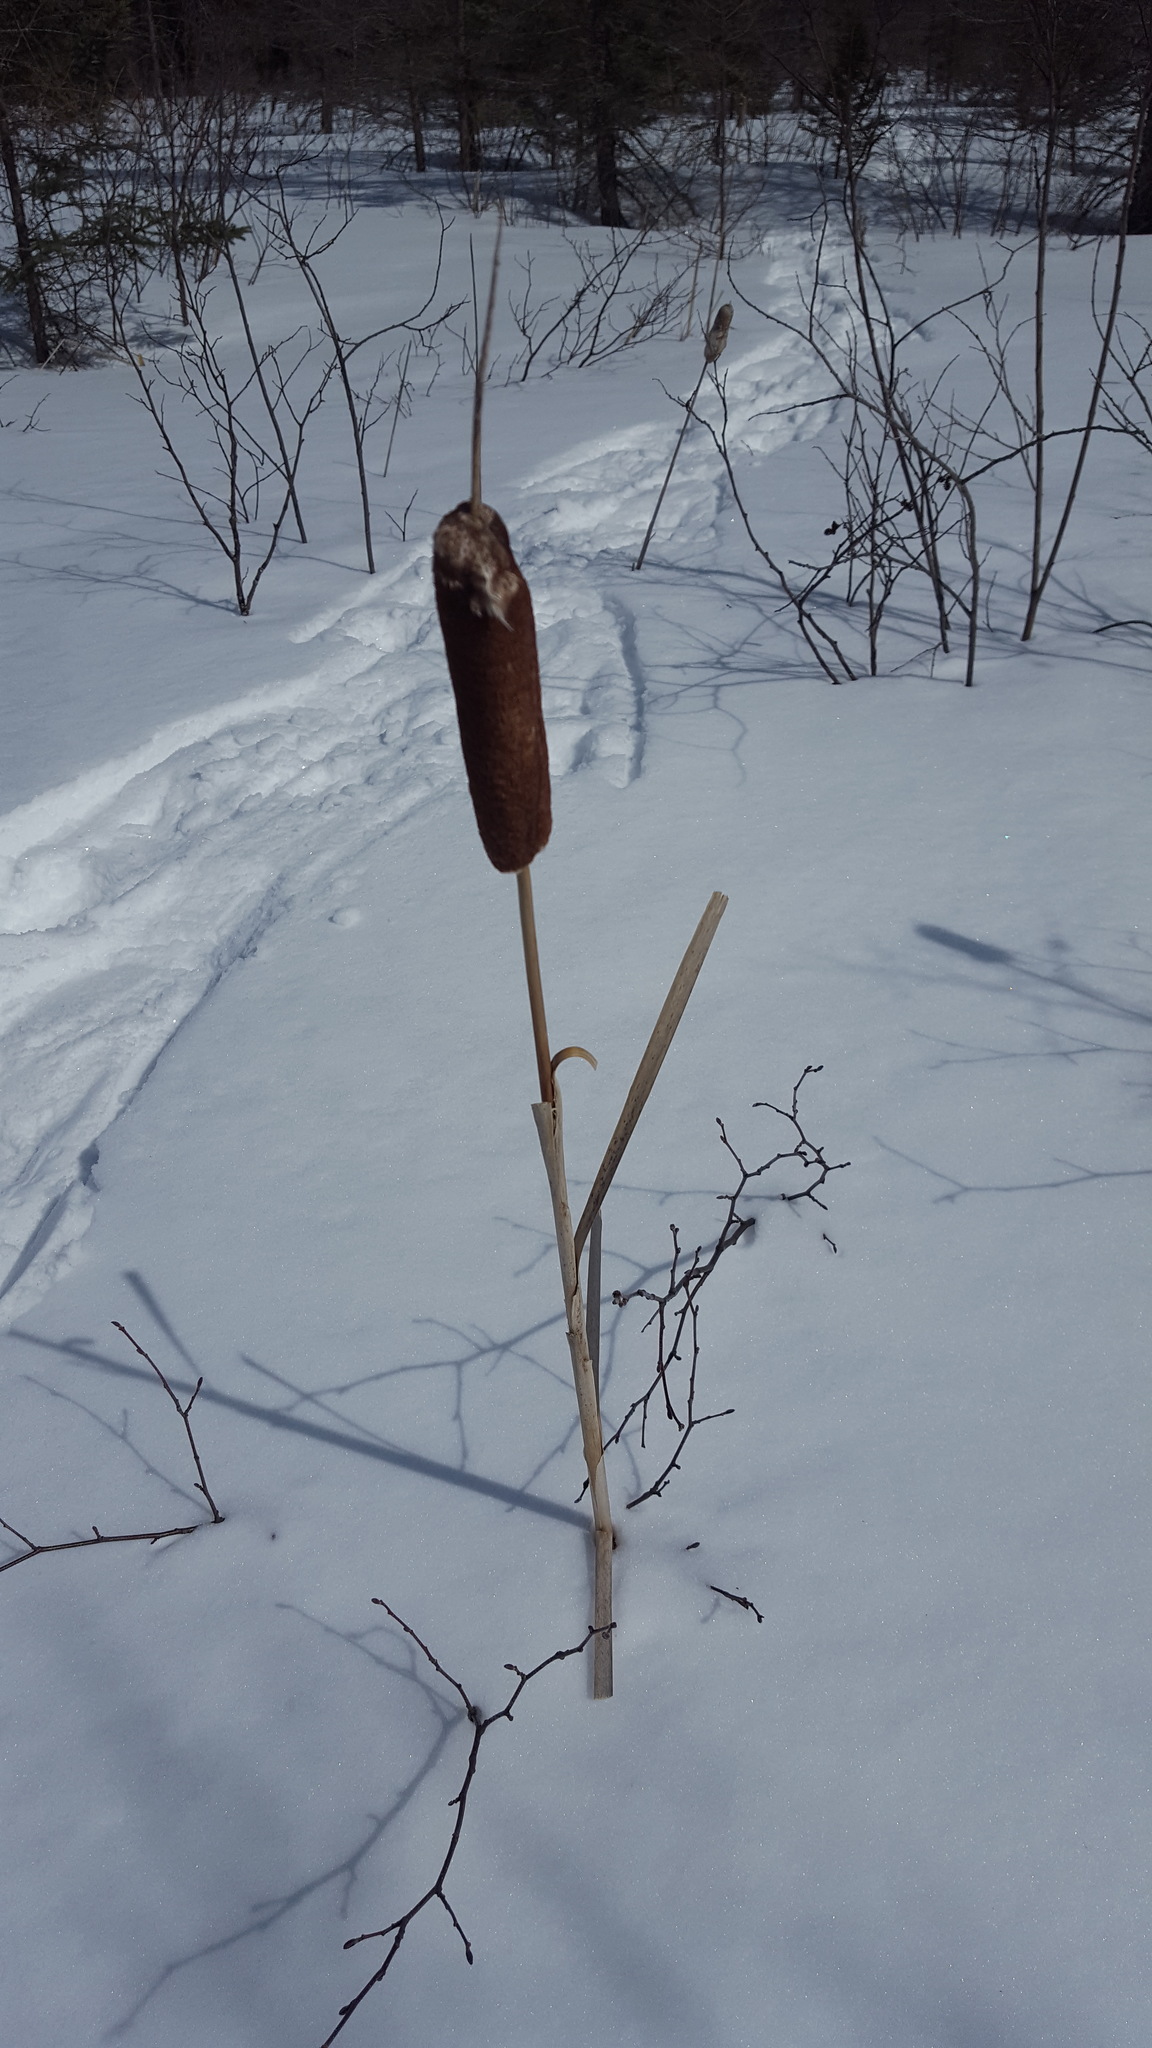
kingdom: Plantae
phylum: Tracheophyta
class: Liliopsida
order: Poales
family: Typhaceae
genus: Typha
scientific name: Typha latifolia
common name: Broadleaf cattail
